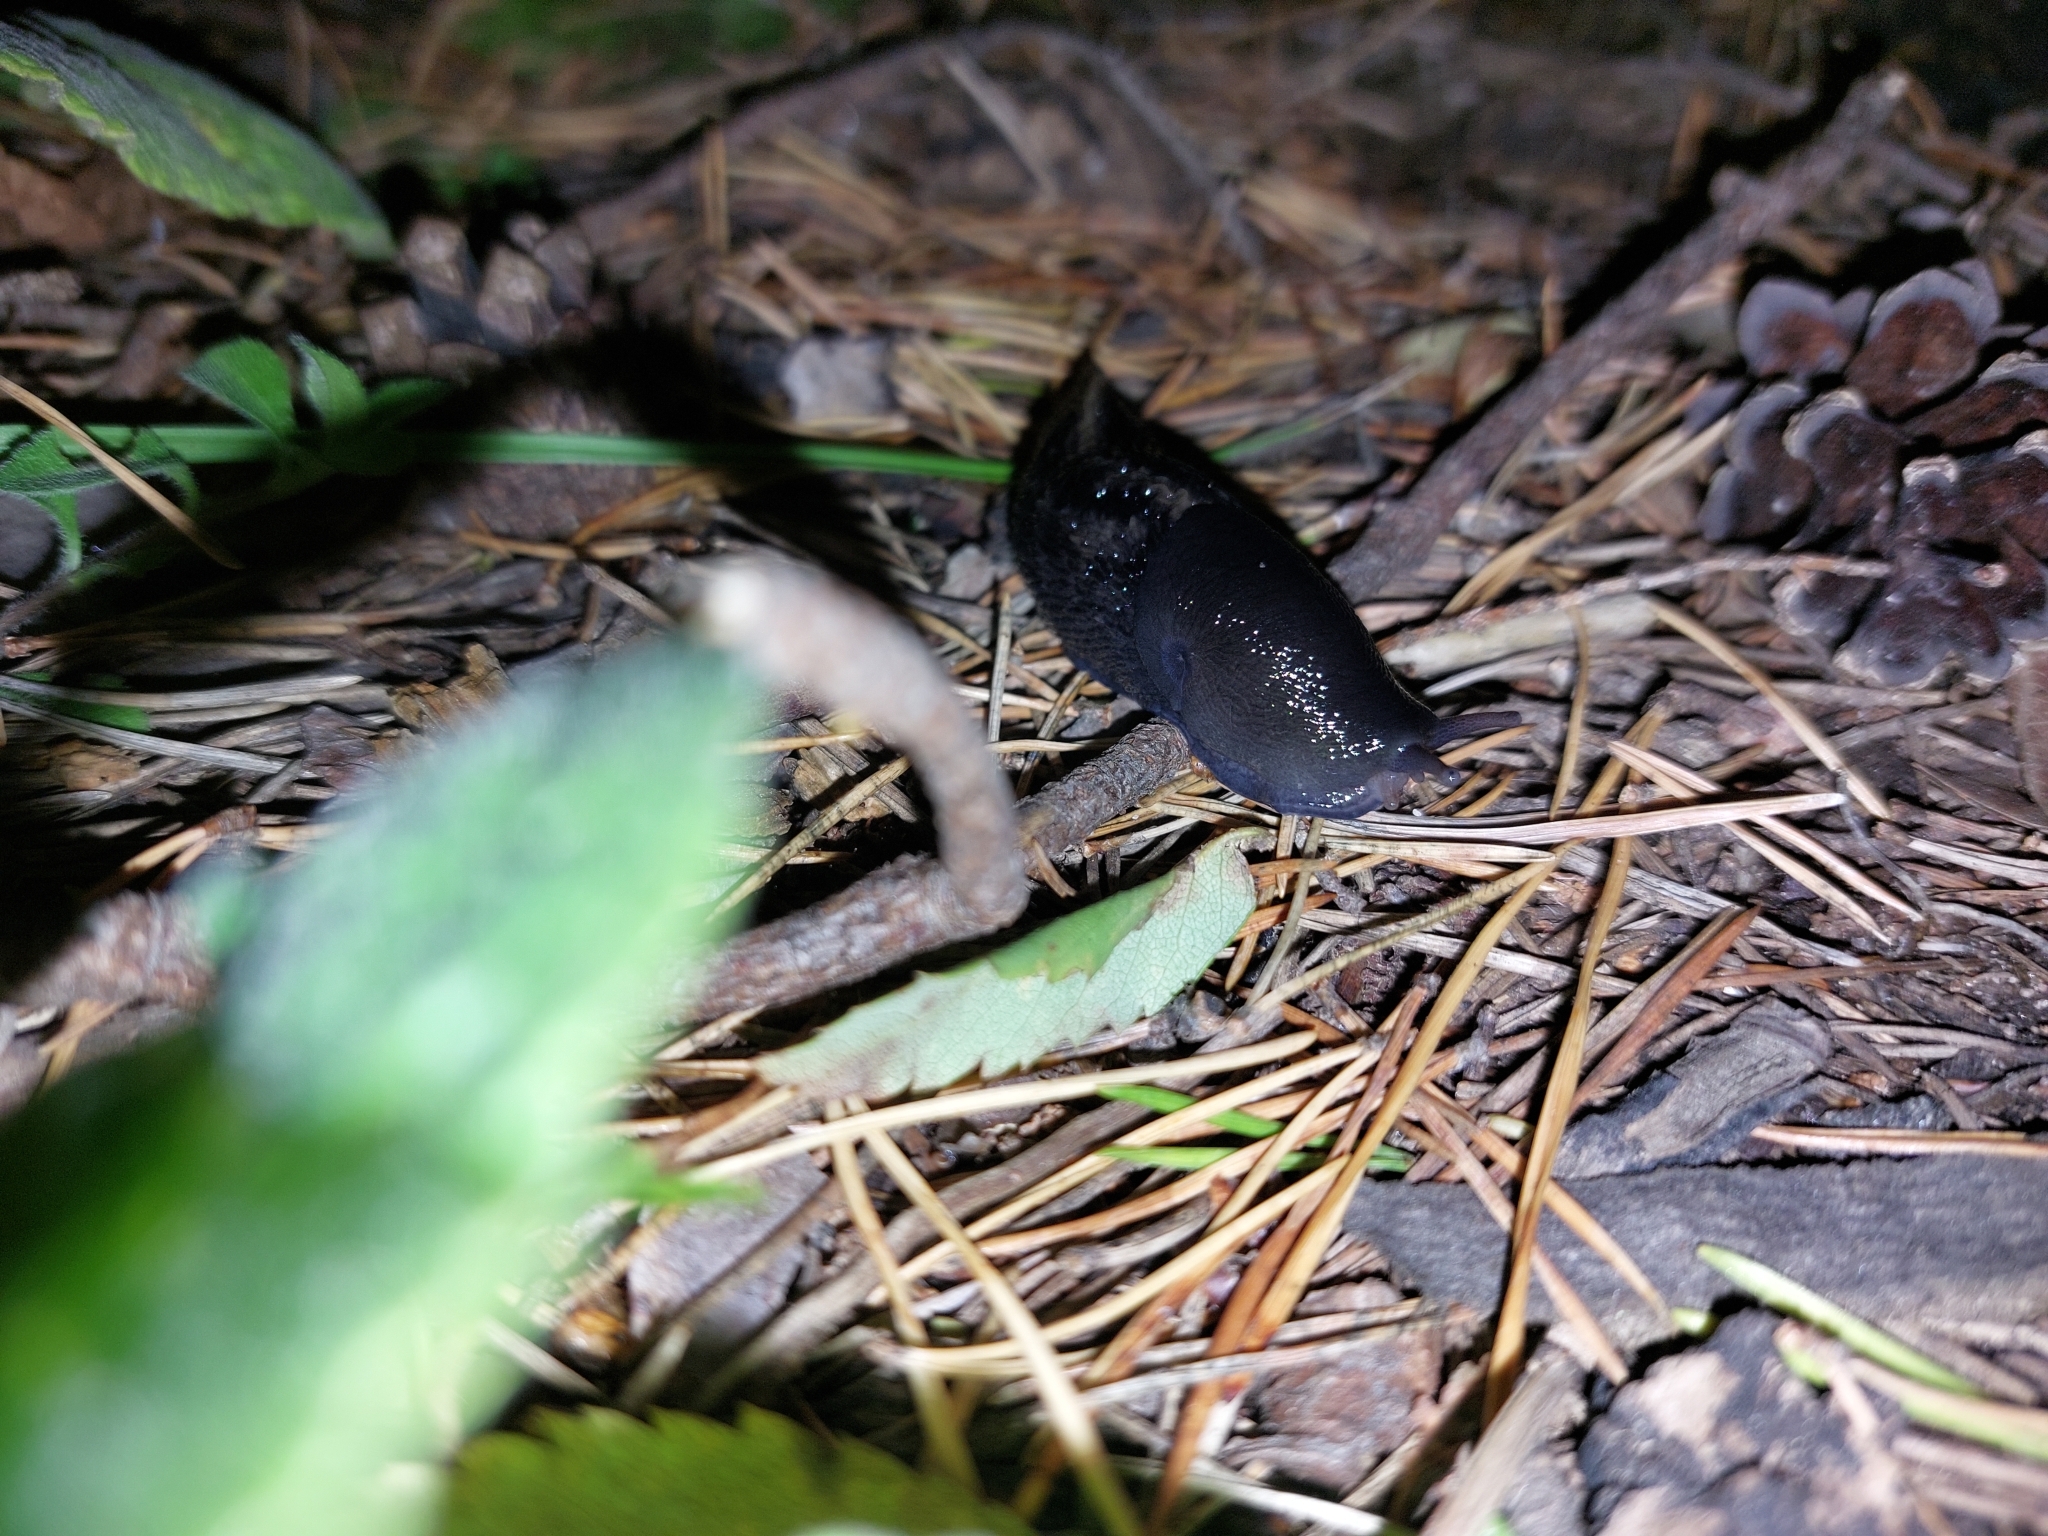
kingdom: Animalia
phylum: Mollusca
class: Gastropoda
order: Stylommatophora
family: Limacidae
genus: Limax
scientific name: Limax cinereoniger
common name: Ash-black slug
